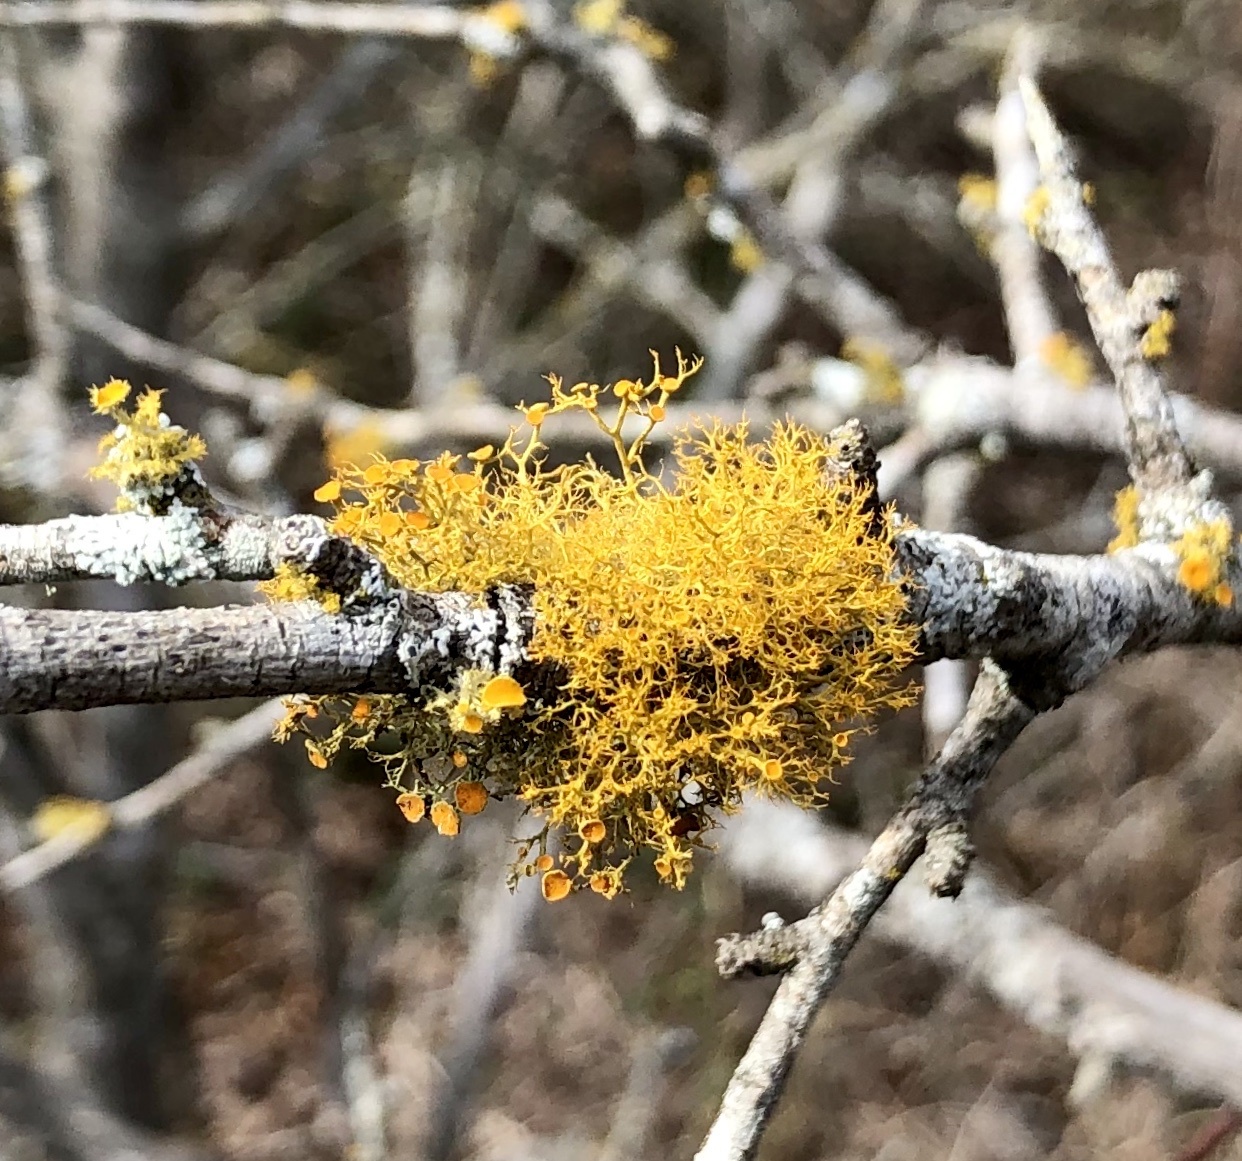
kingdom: Fungi
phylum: Ascomycota
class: Lecanoromycetes
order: Teloschistales
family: Teloschistaceae
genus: Teloschistes
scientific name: Teloschistes exilis
